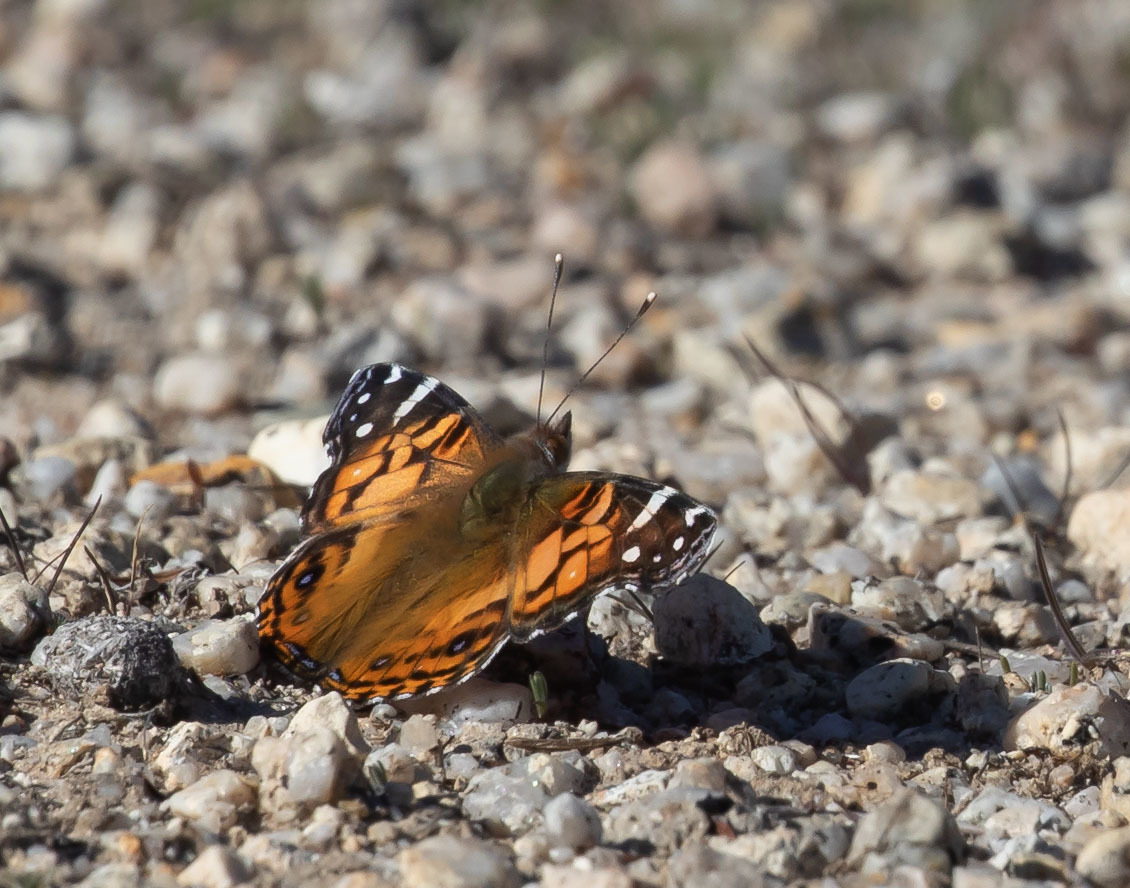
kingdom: Animalia
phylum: Arthropoda
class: Insecta
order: Lepidoptera
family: Nymphalidae
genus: Vanessa
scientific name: Vanessa virginiensis
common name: American lady
